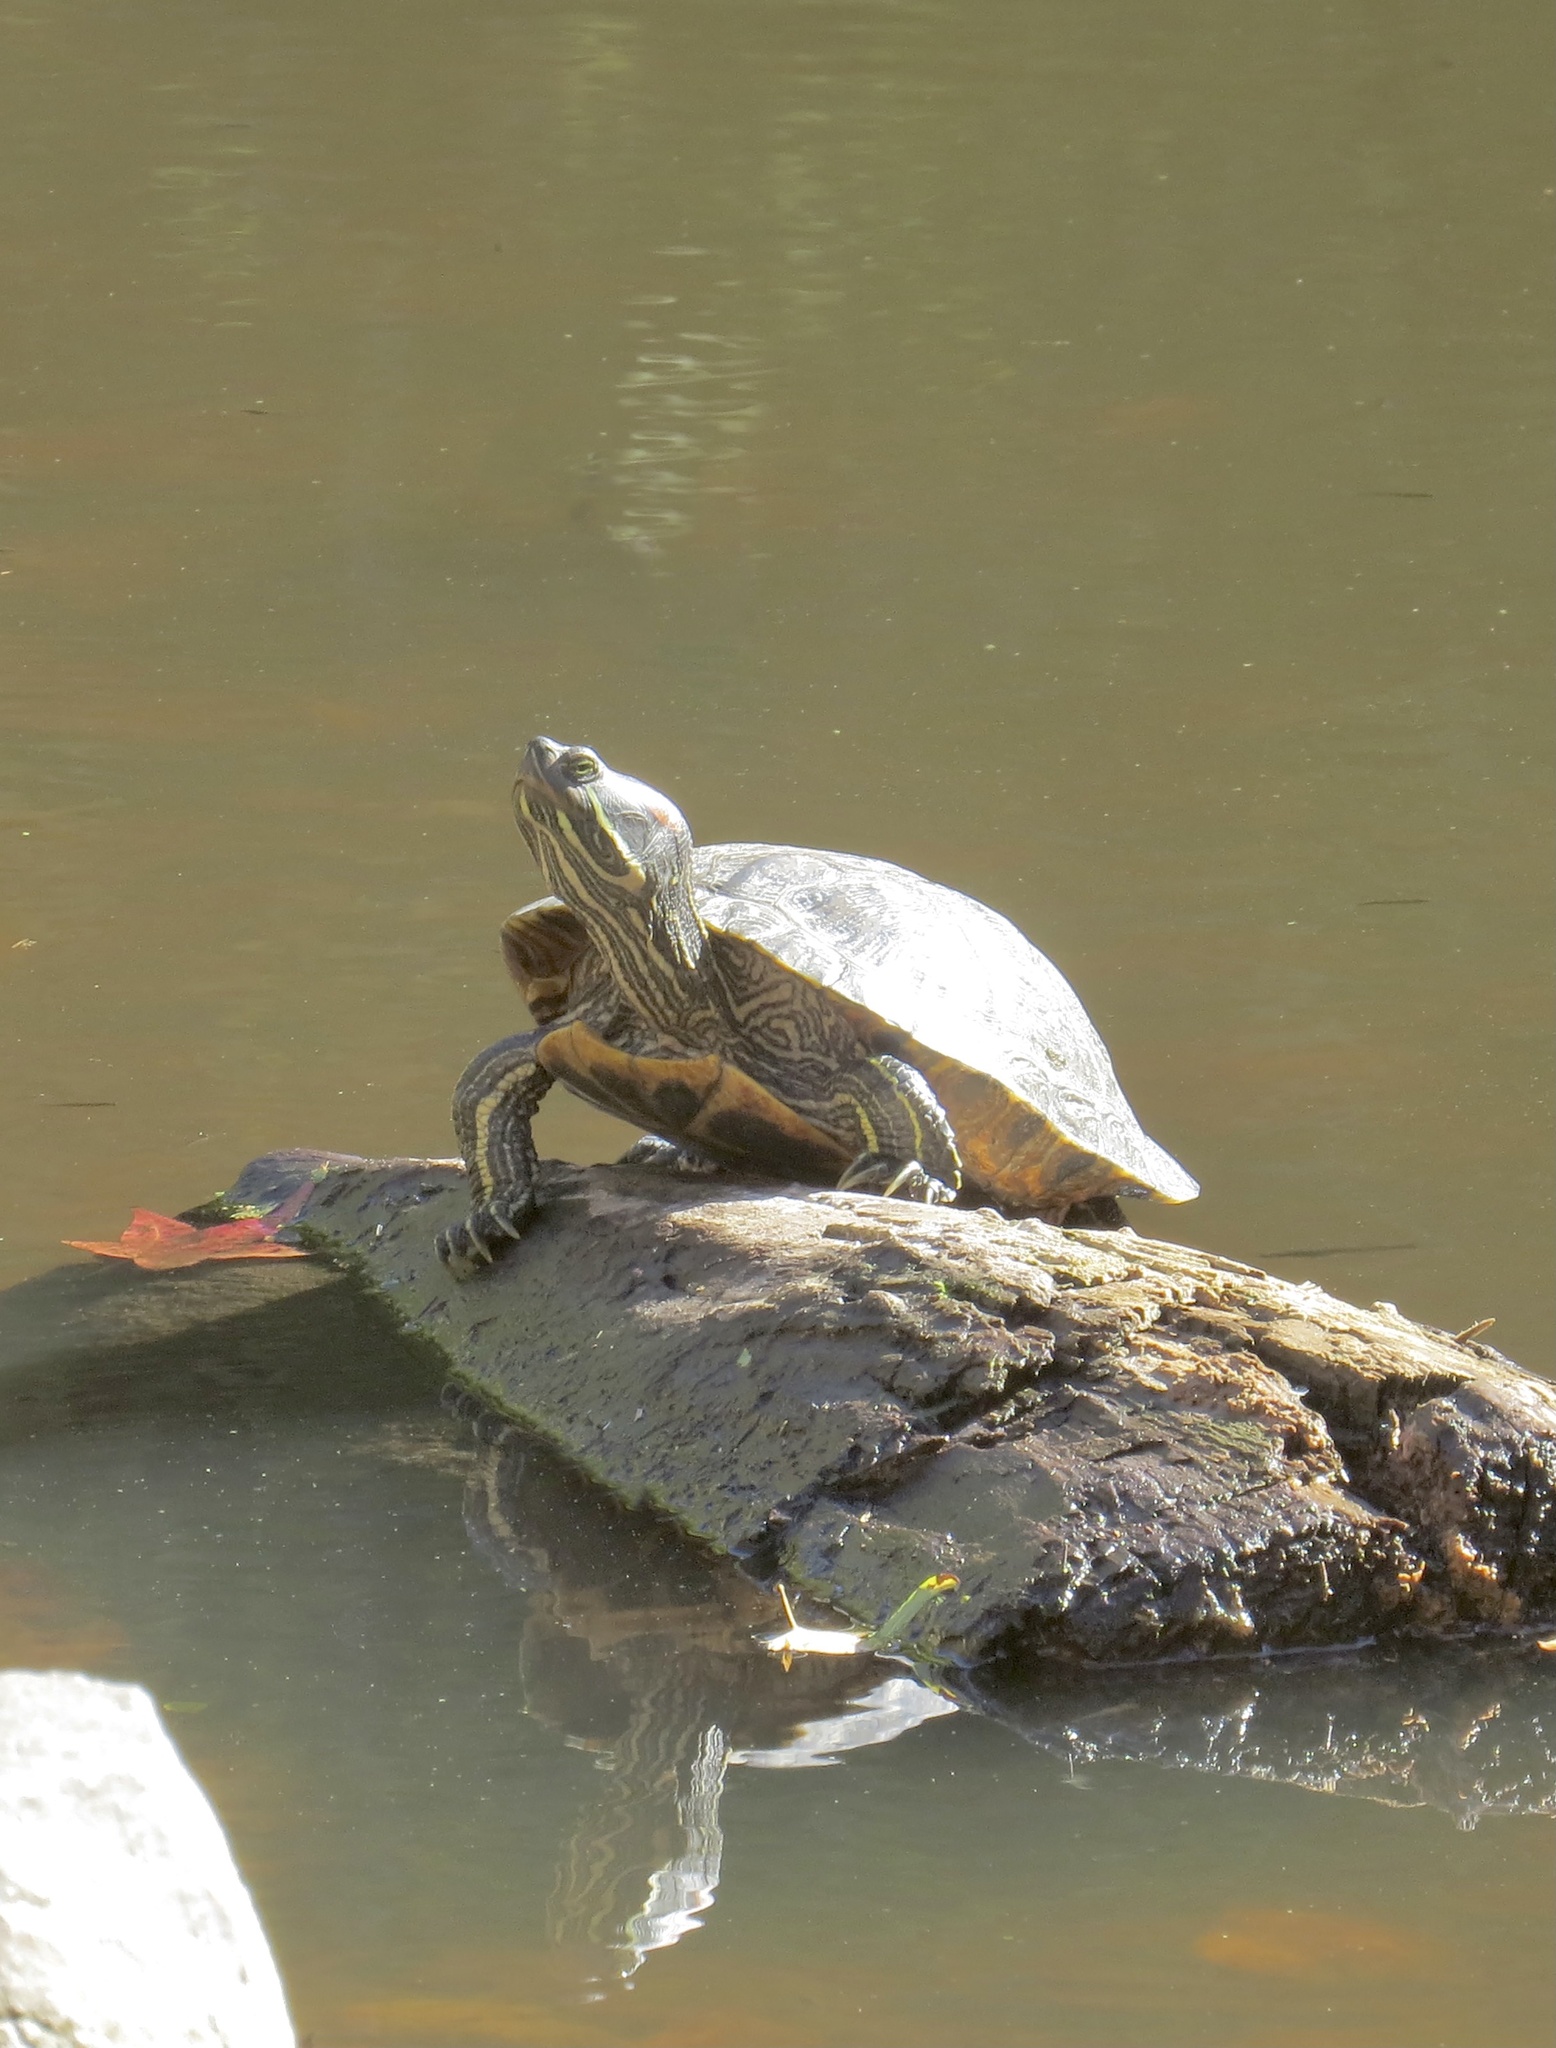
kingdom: Animalia
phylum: Chordata
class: Testudines
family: Emydidae
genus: Trachemys
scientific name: Trachemys scripta
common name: Slider
